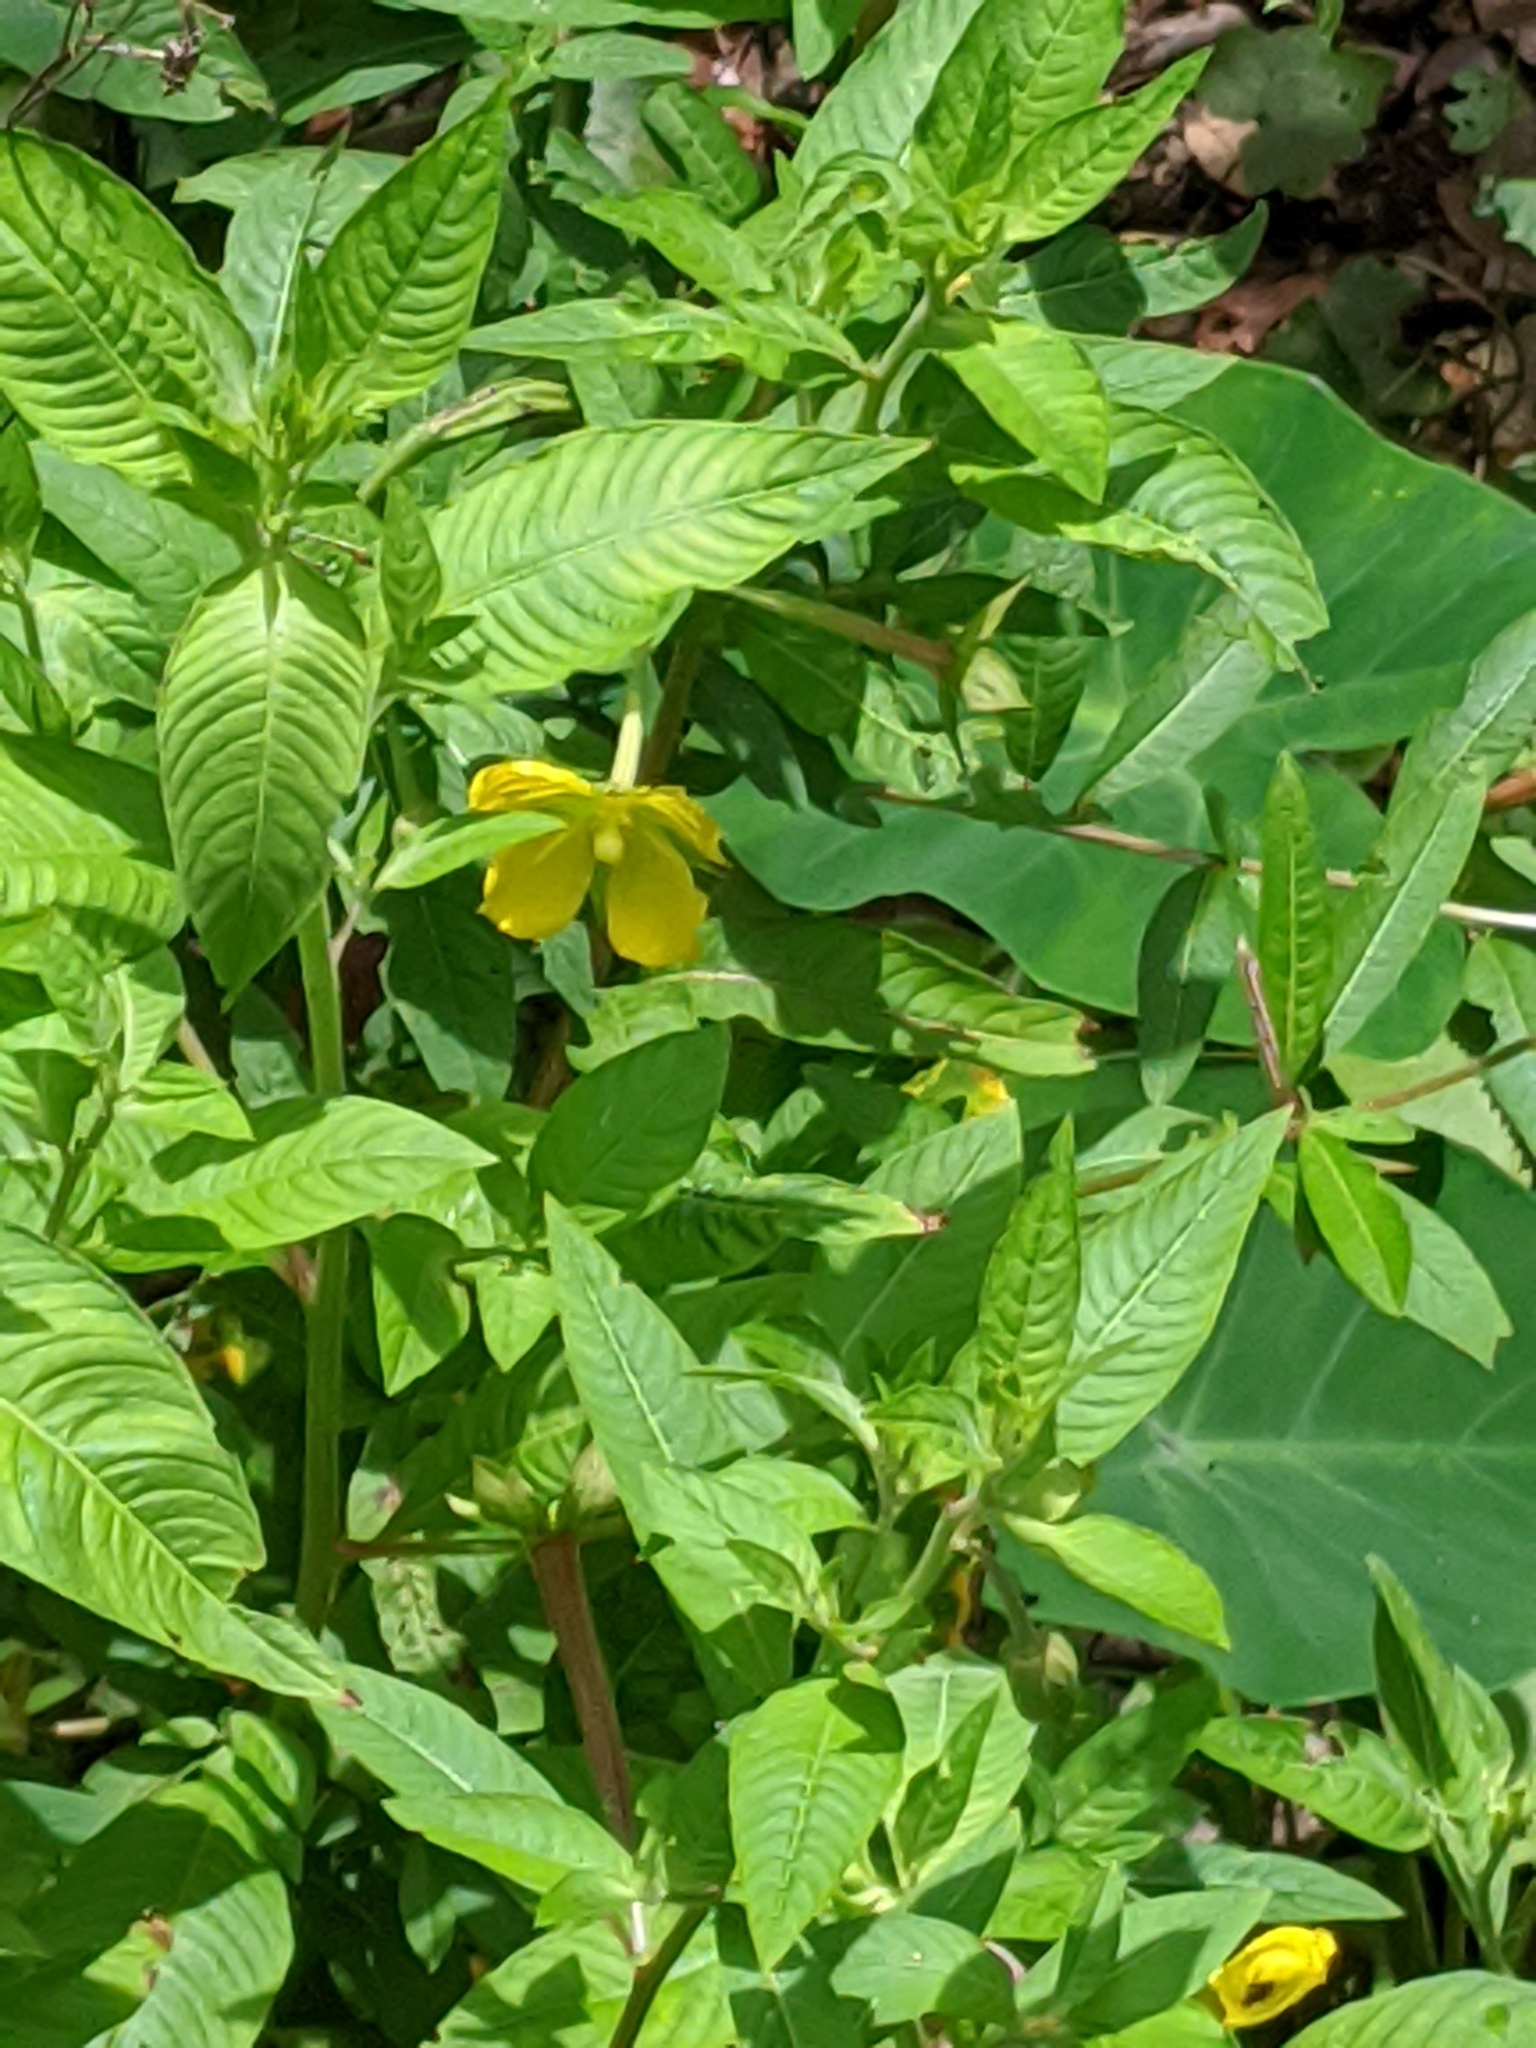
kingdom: Plantae
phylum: Tracheophyta
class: Magnoliopsida
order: Myrtales
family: Onagraceae
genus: Ludwigia
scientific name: Ludwigia peruviana
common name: Peruvian primrose-willow
